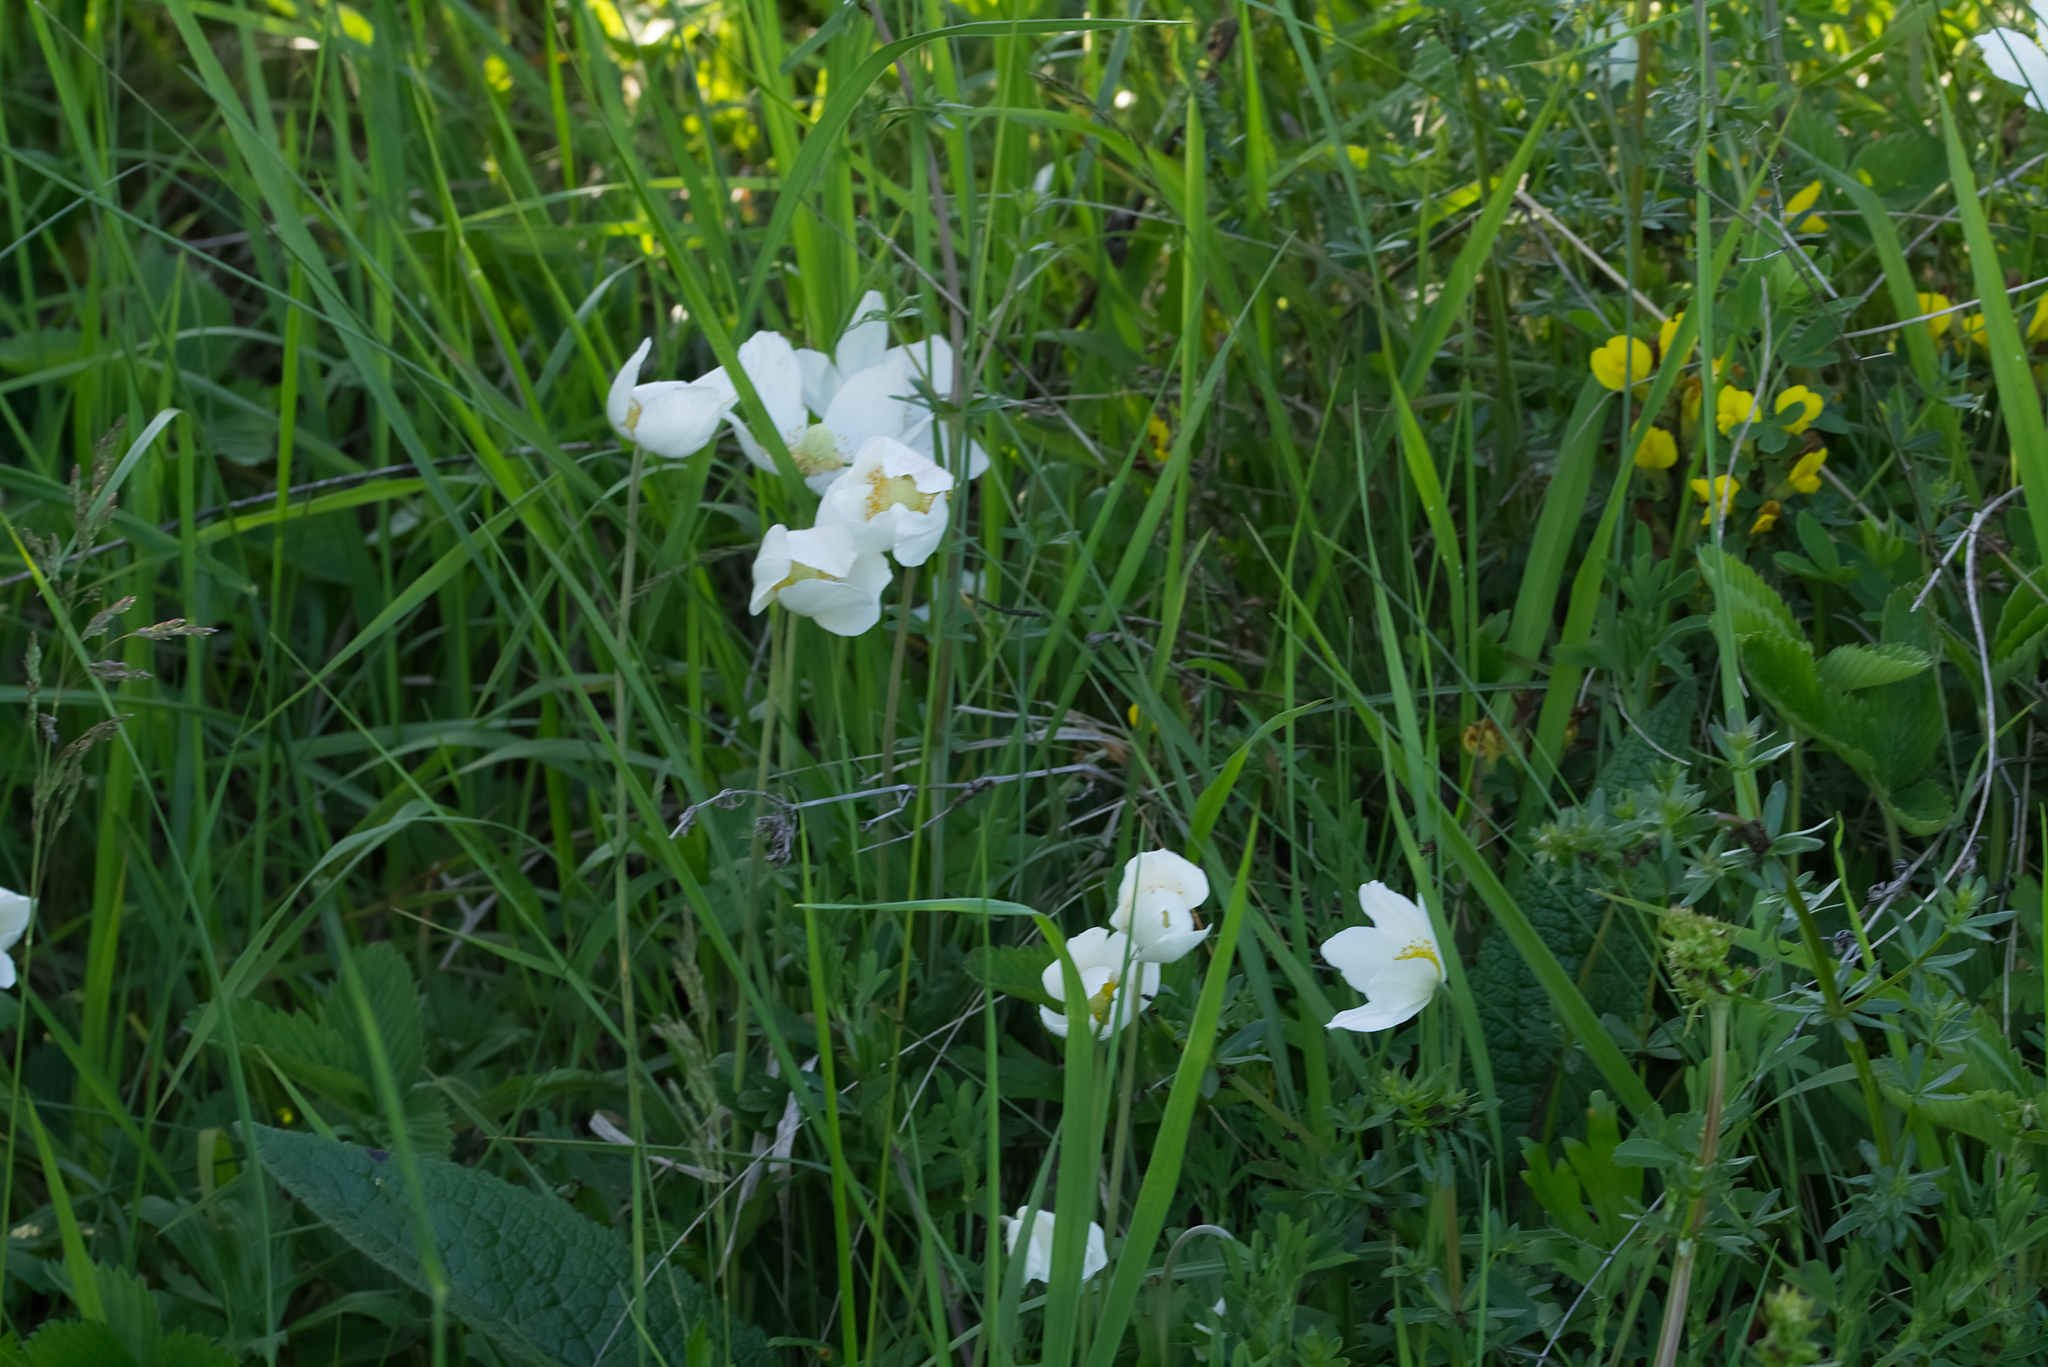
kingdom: Plantae
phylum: Tracheophyta
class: Magnoliopsida
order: Ranunculales
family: Ranunculaceae
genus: Anemone
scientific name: Anemone sylvestris
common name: Snowdrop anemone
